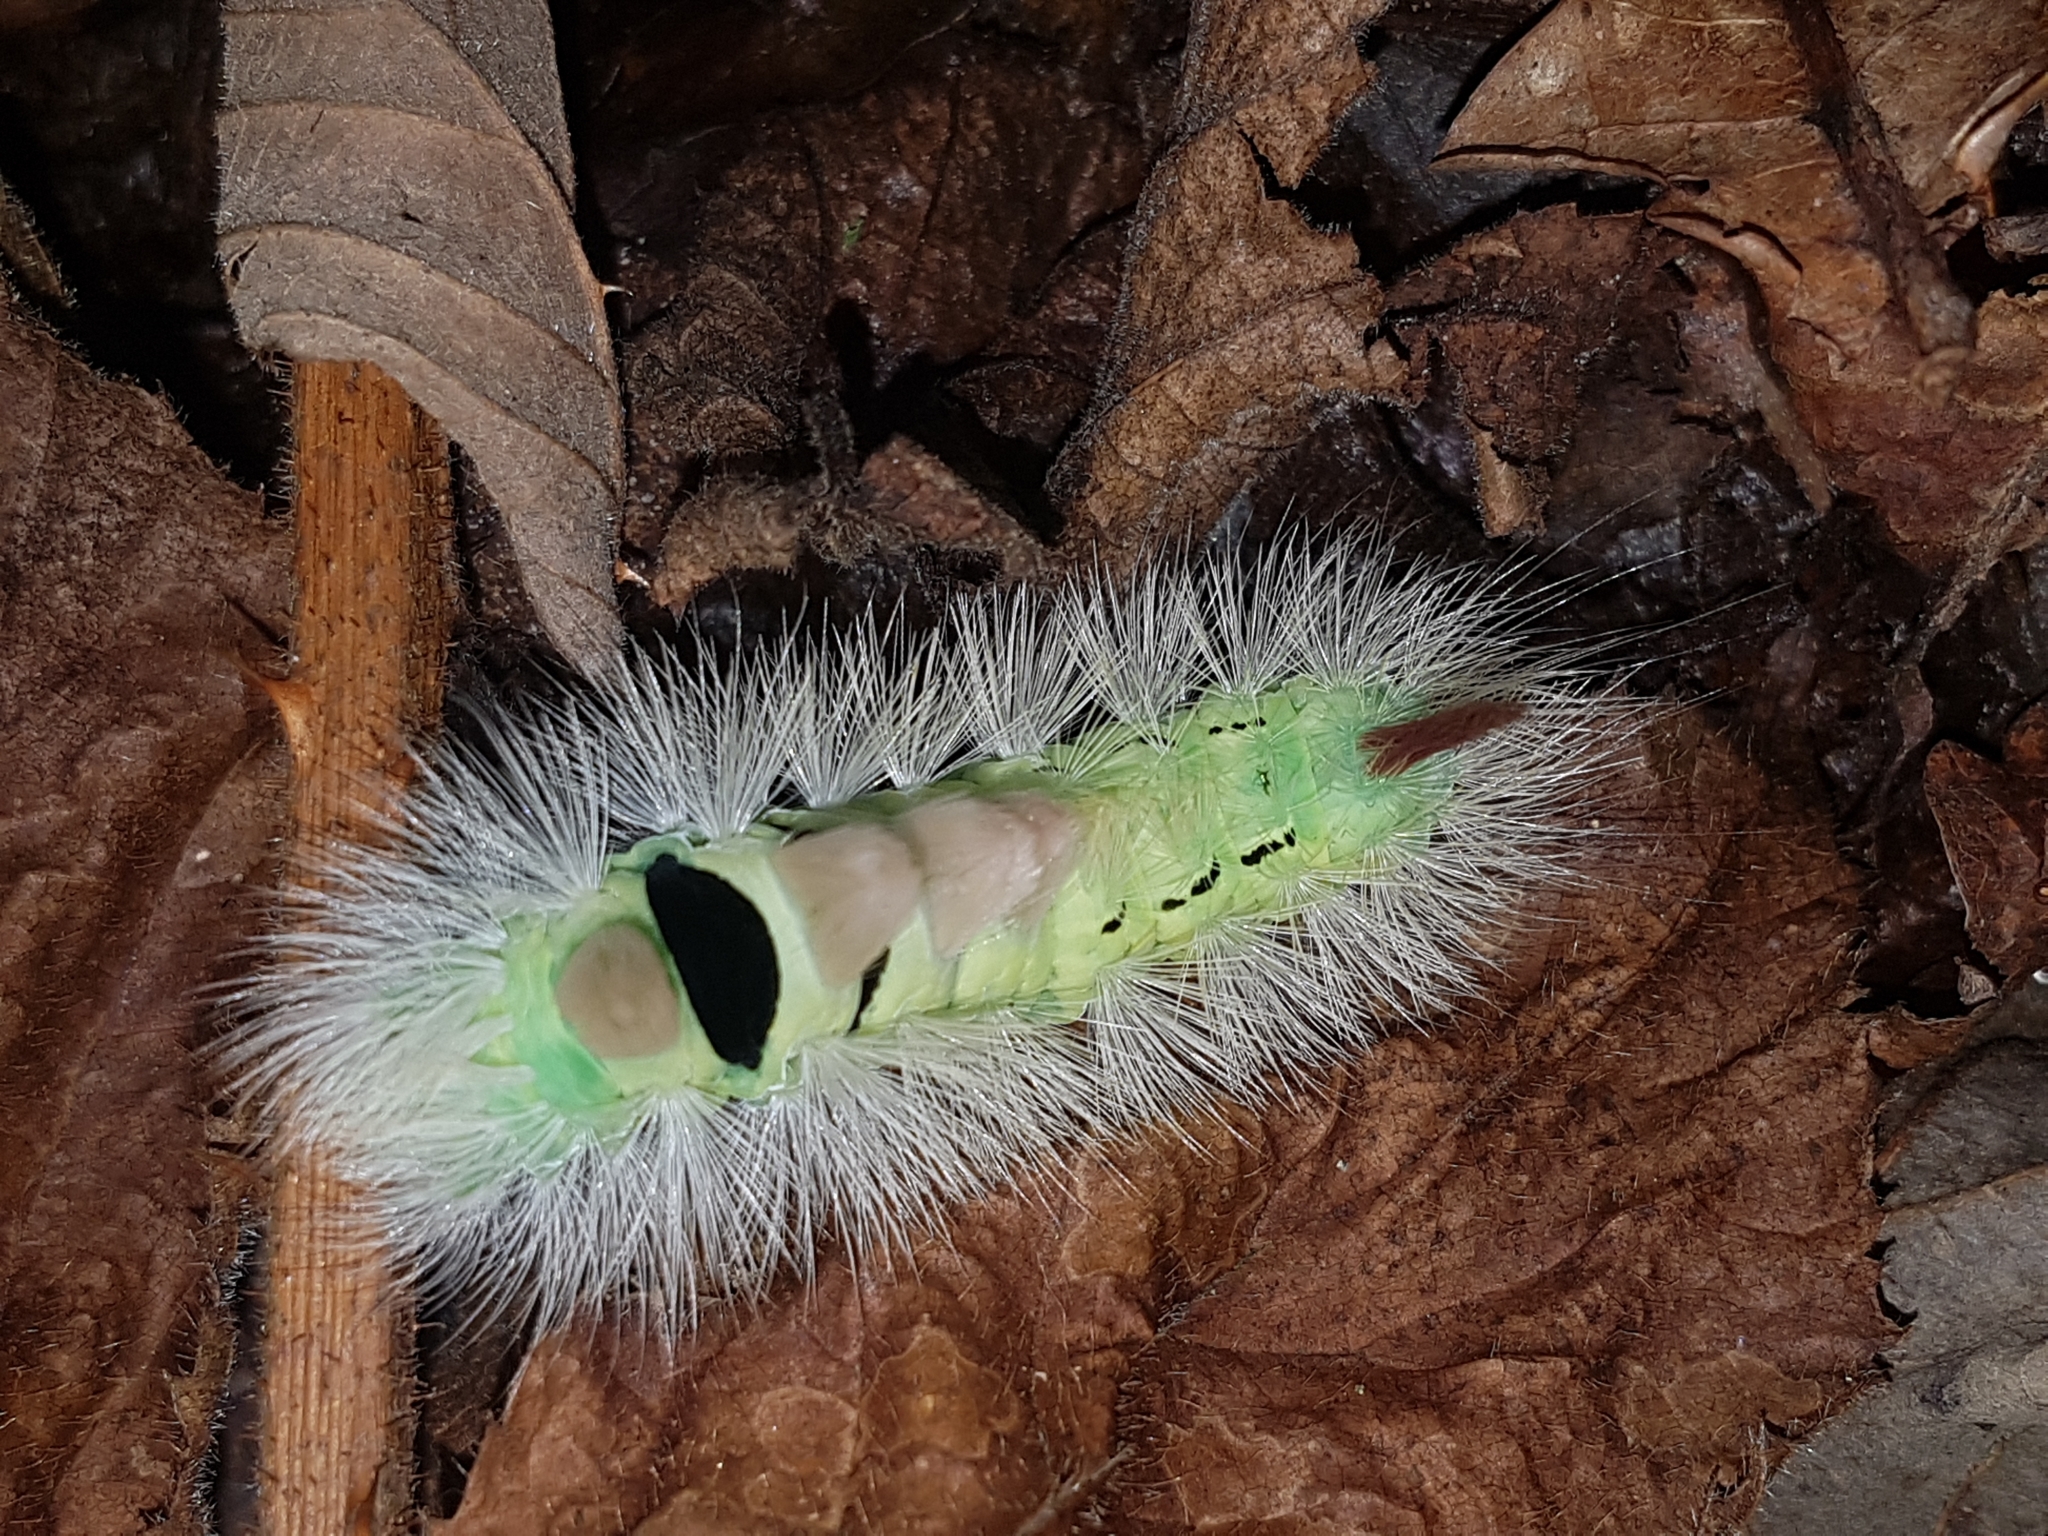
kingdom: Animalia
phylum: Arthropoda
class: Insecta
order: Lepidoptera
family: Erebidae
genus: Calliteara
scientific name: Calliteara pudibunda
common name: Pale tussock
